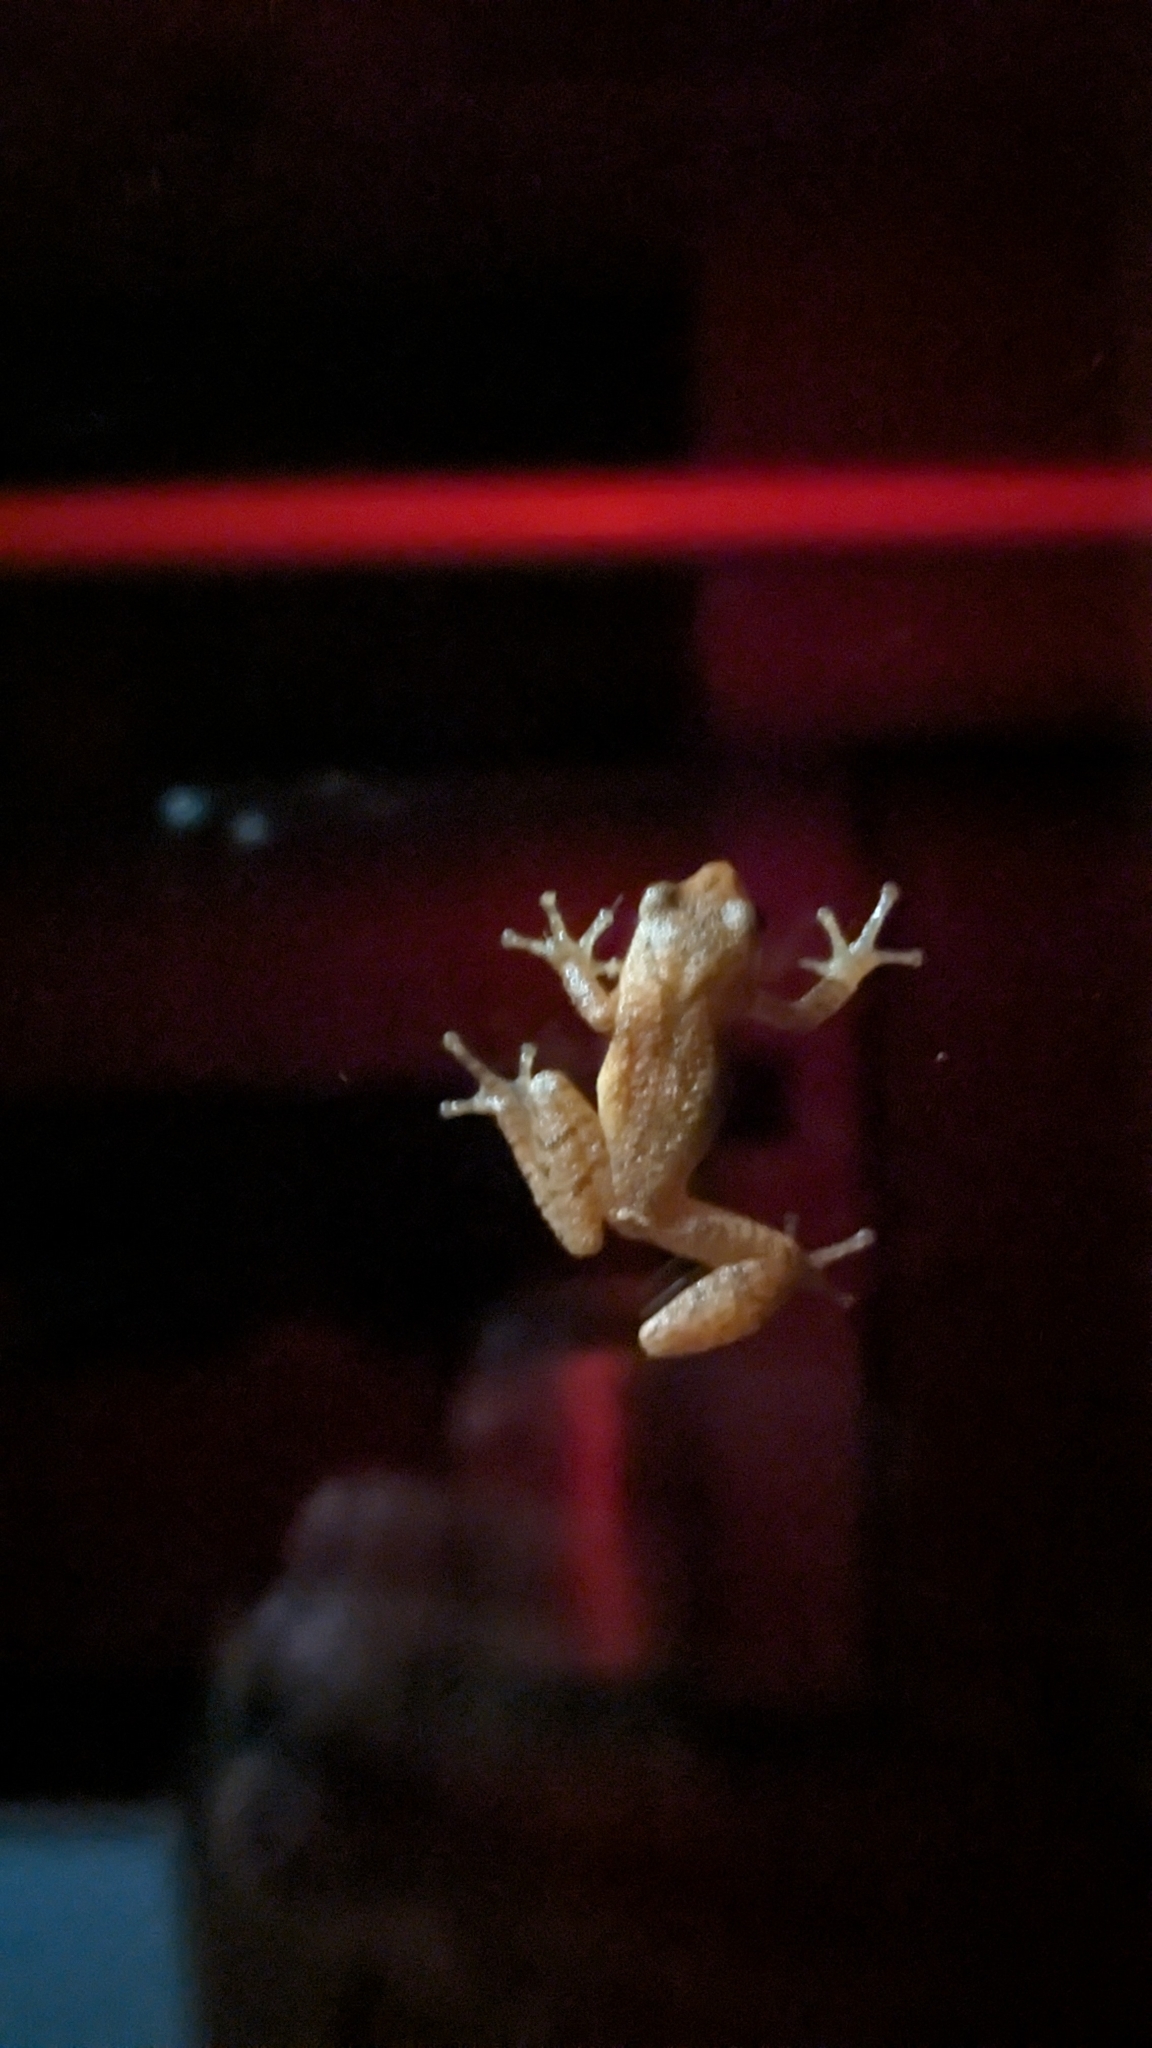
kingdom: Animalia
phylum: Chordata
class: Amphibia
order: Anura
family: Hylidae
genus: Pseudacris
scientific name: Pseudacris crucifer
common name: Spring peeper
